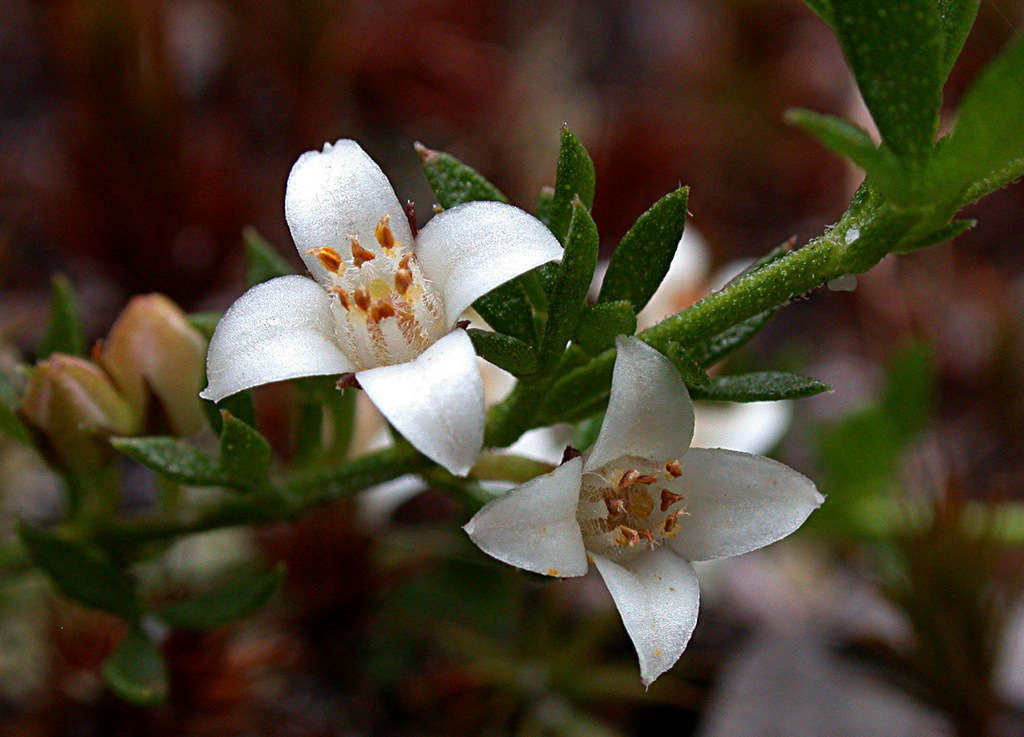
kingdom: Plantae
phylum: Tracheophyta
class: Magnoliopsida
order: Sapindales
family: Rutaceae
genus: Cyanothamnus
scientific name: Cyanothamnus nanus
